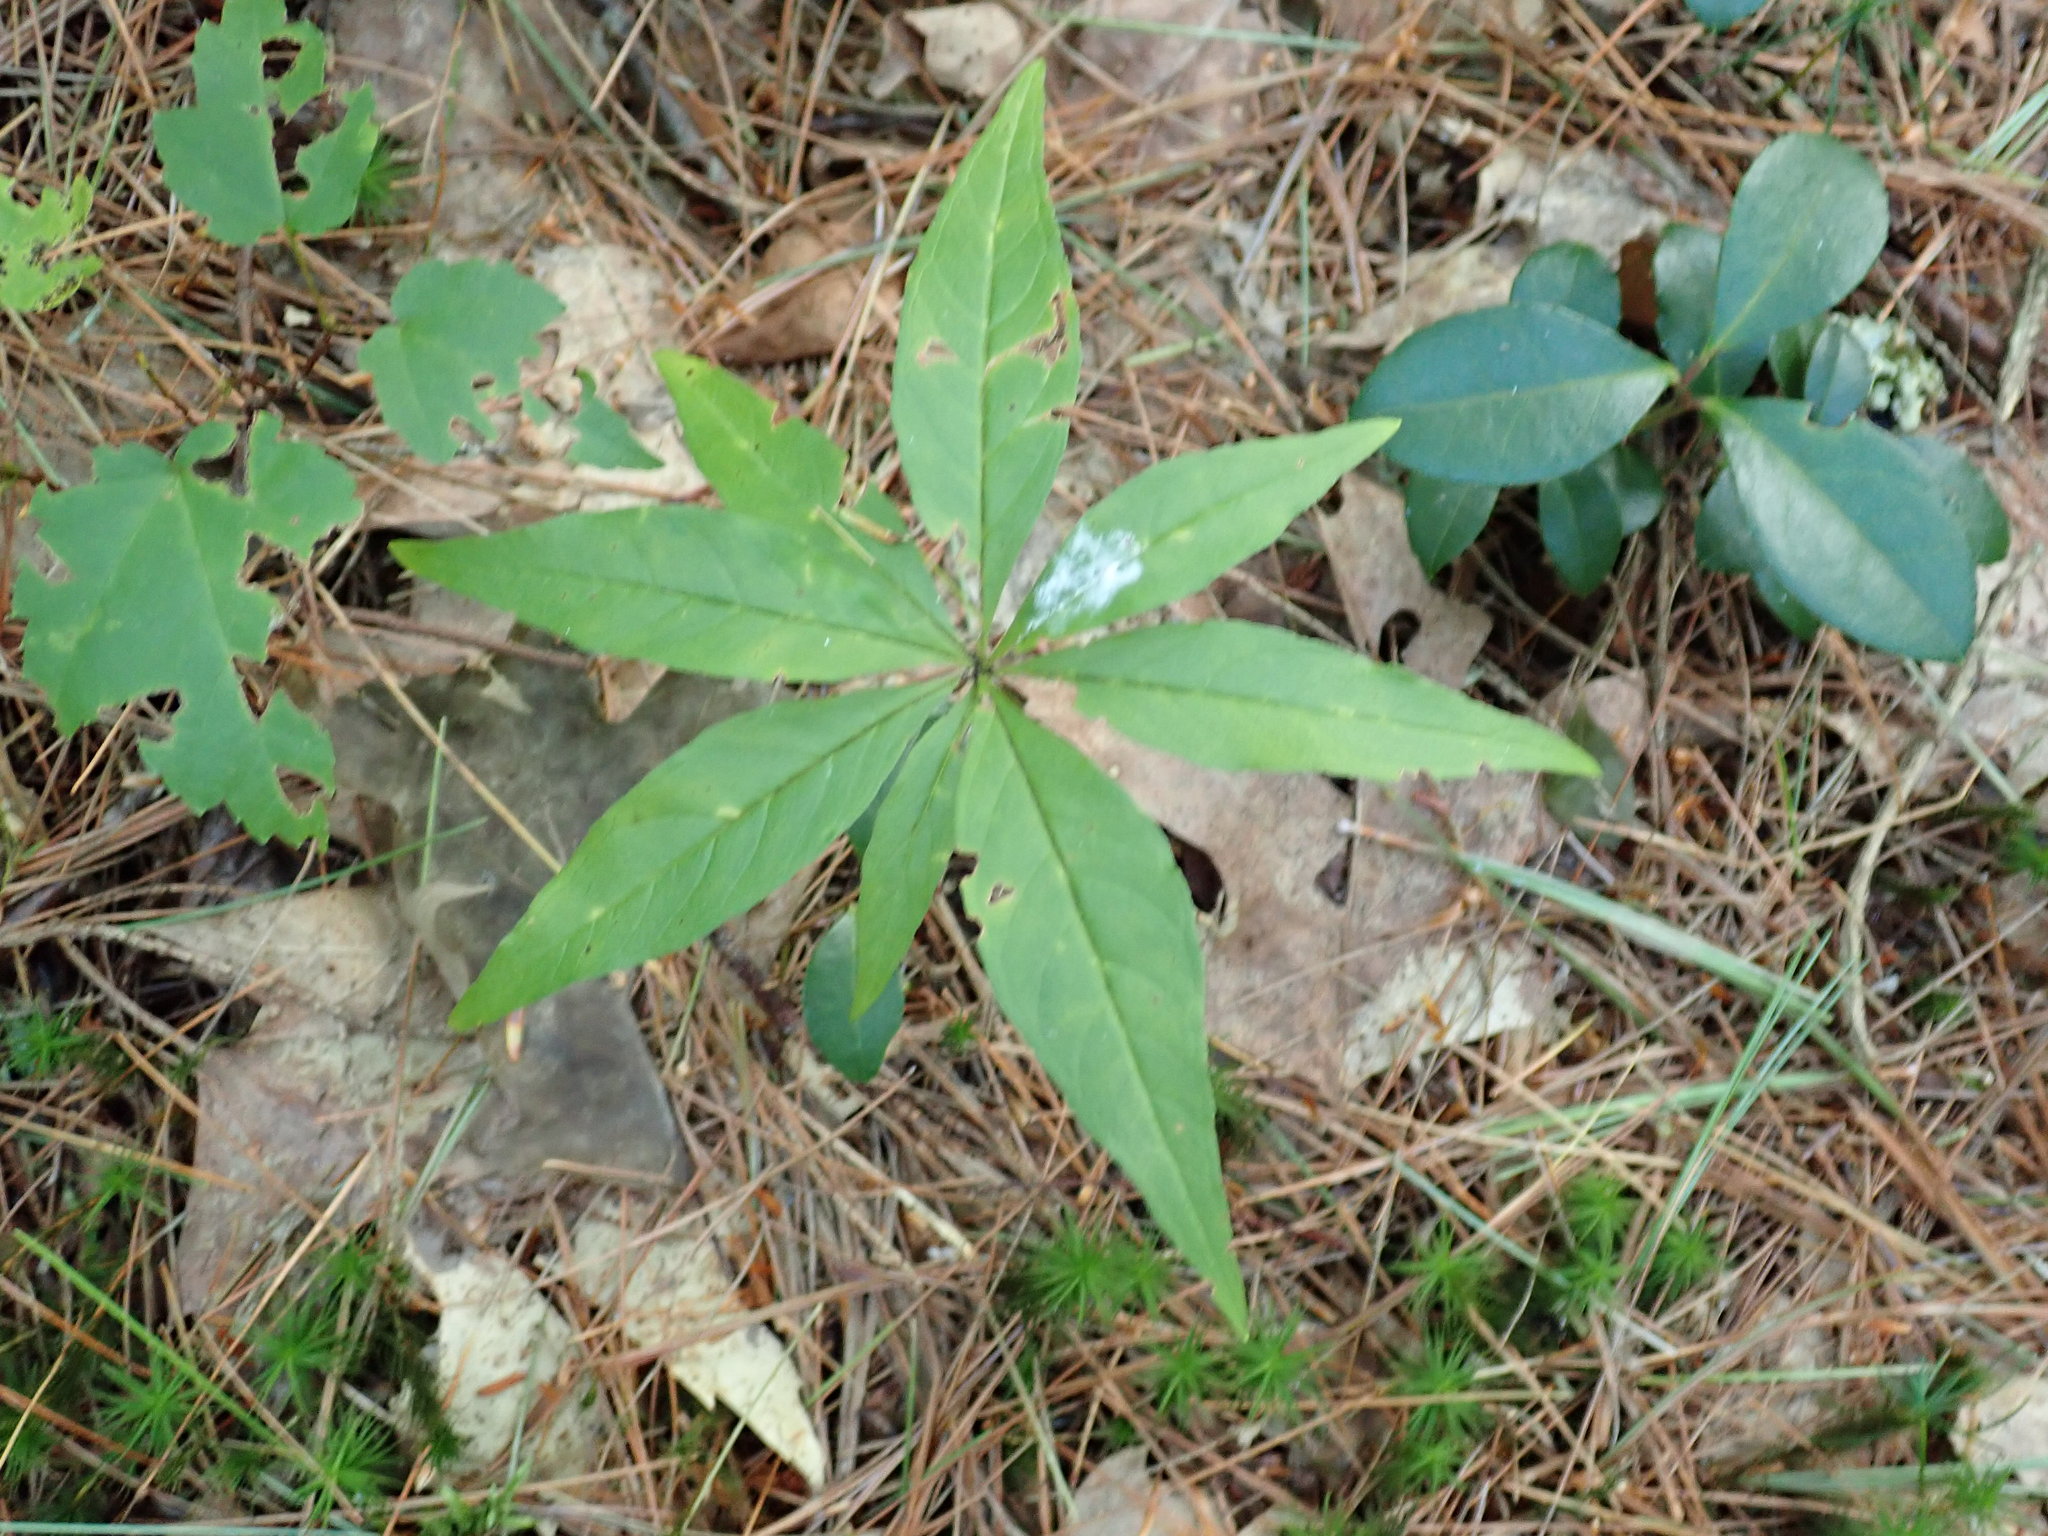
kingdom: Plantae
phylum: Tracheophyta
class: Magnoliopsida
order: Ericales
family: Primulaceae
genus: Lysimachia
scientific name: Lysimachia borealis
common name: American starflower
